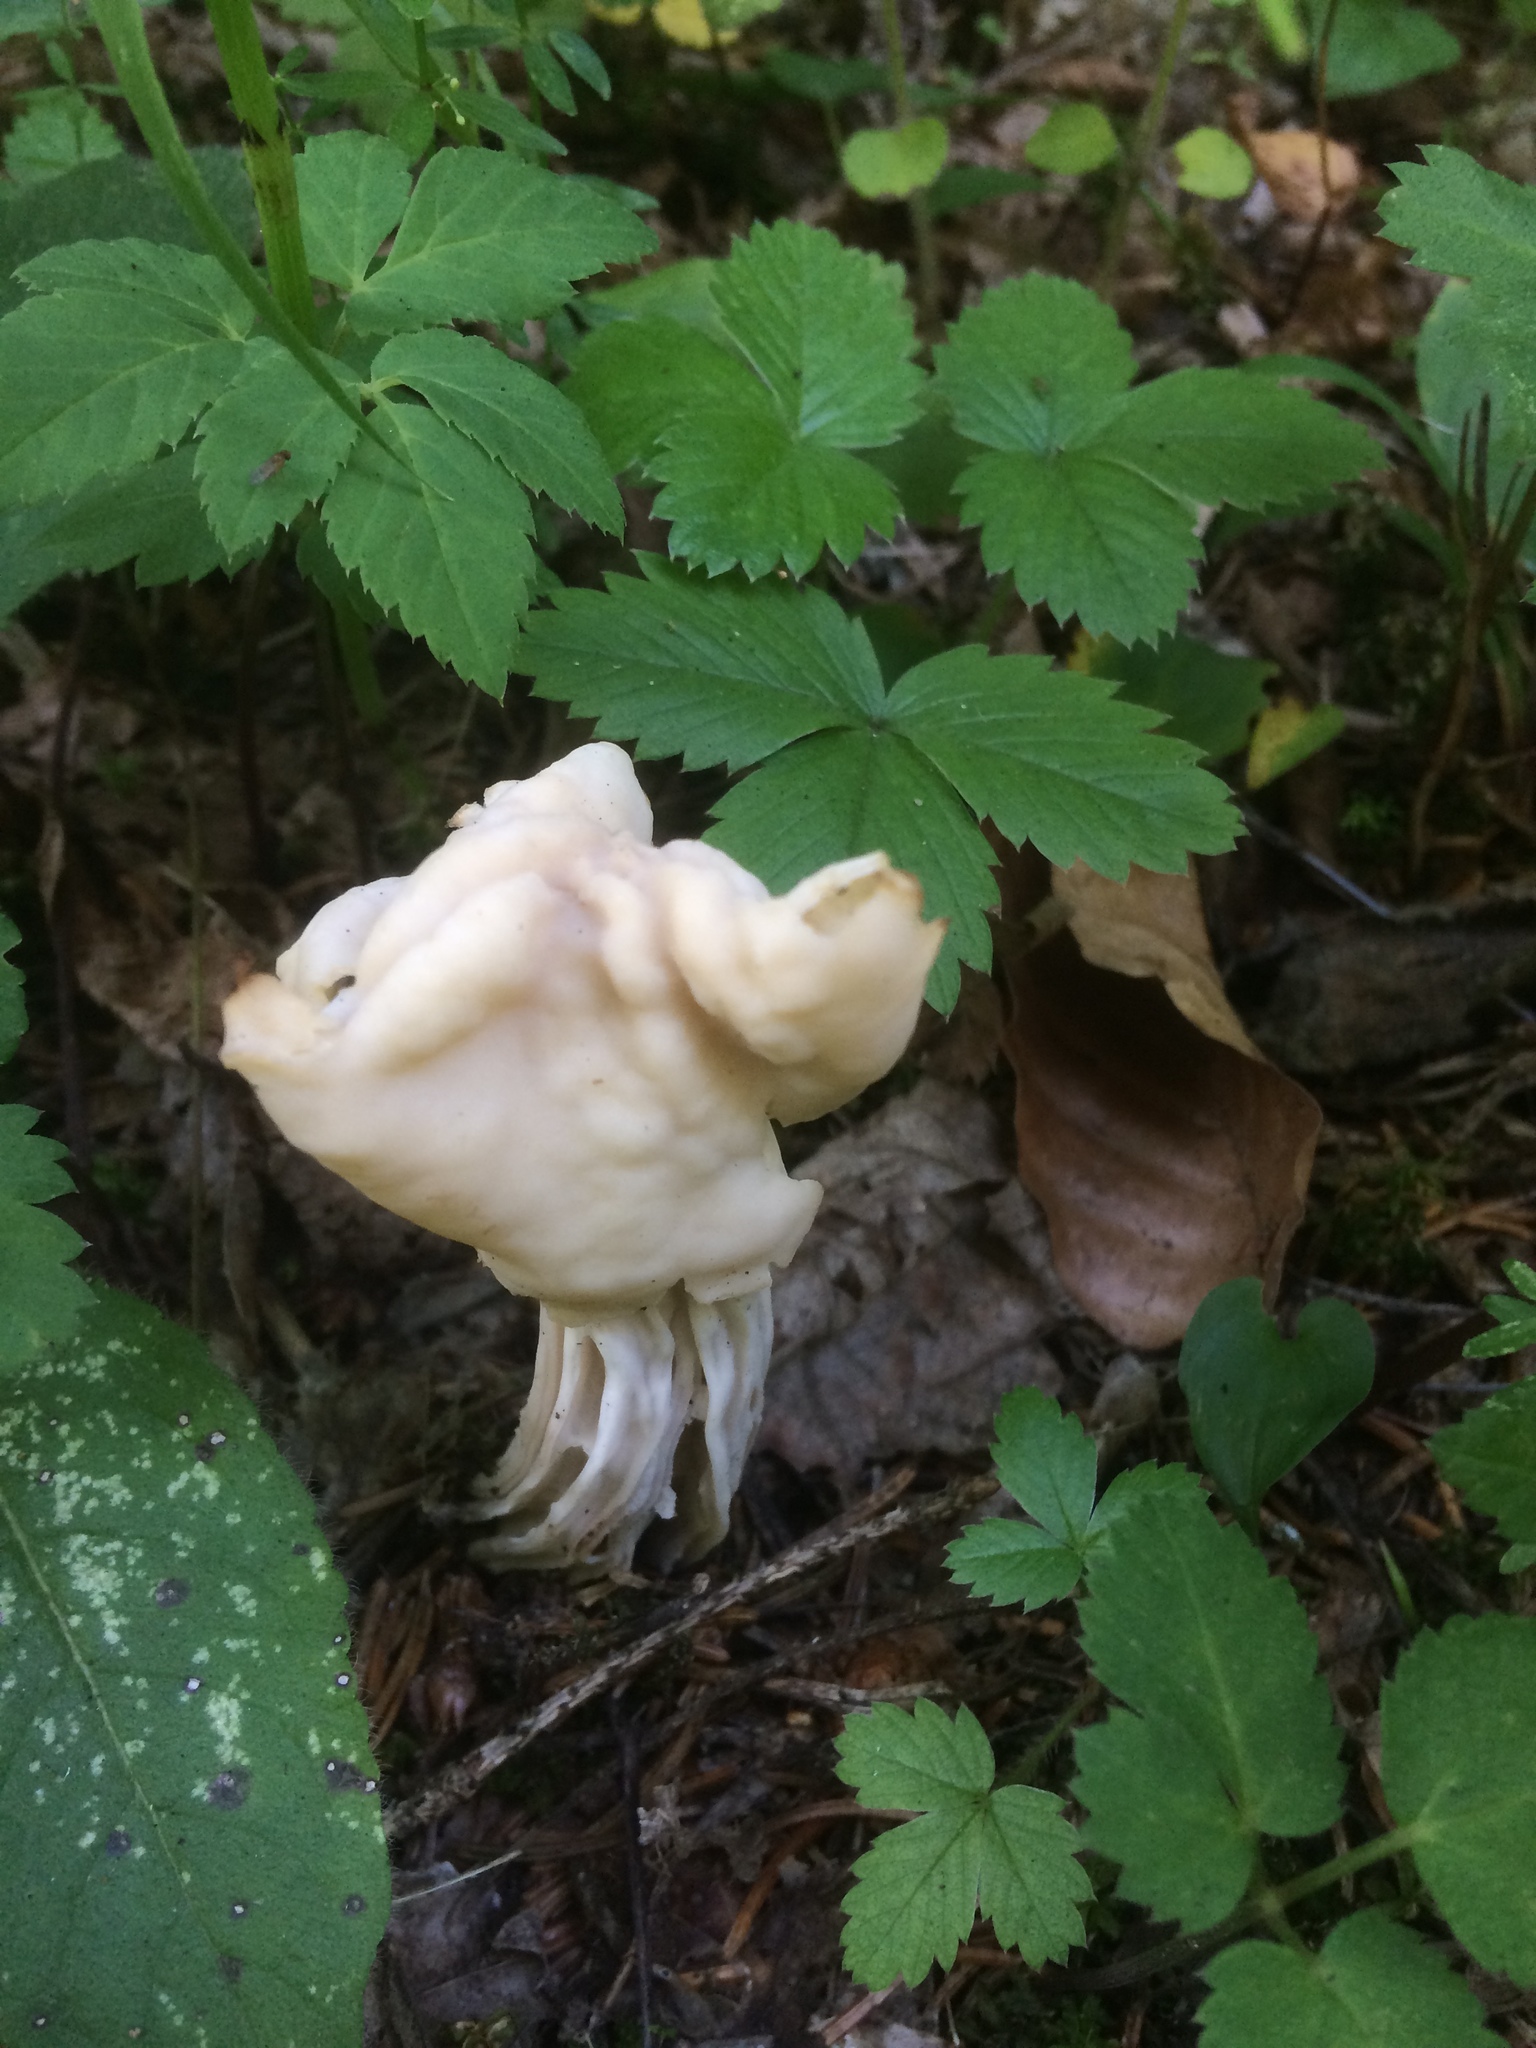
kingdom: Fungi
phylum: Ascomycota
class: Pezizomycetes
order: Pezizales
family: Helvellaceae
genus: Helvella
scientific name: Helvella crispa
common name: White saddle
